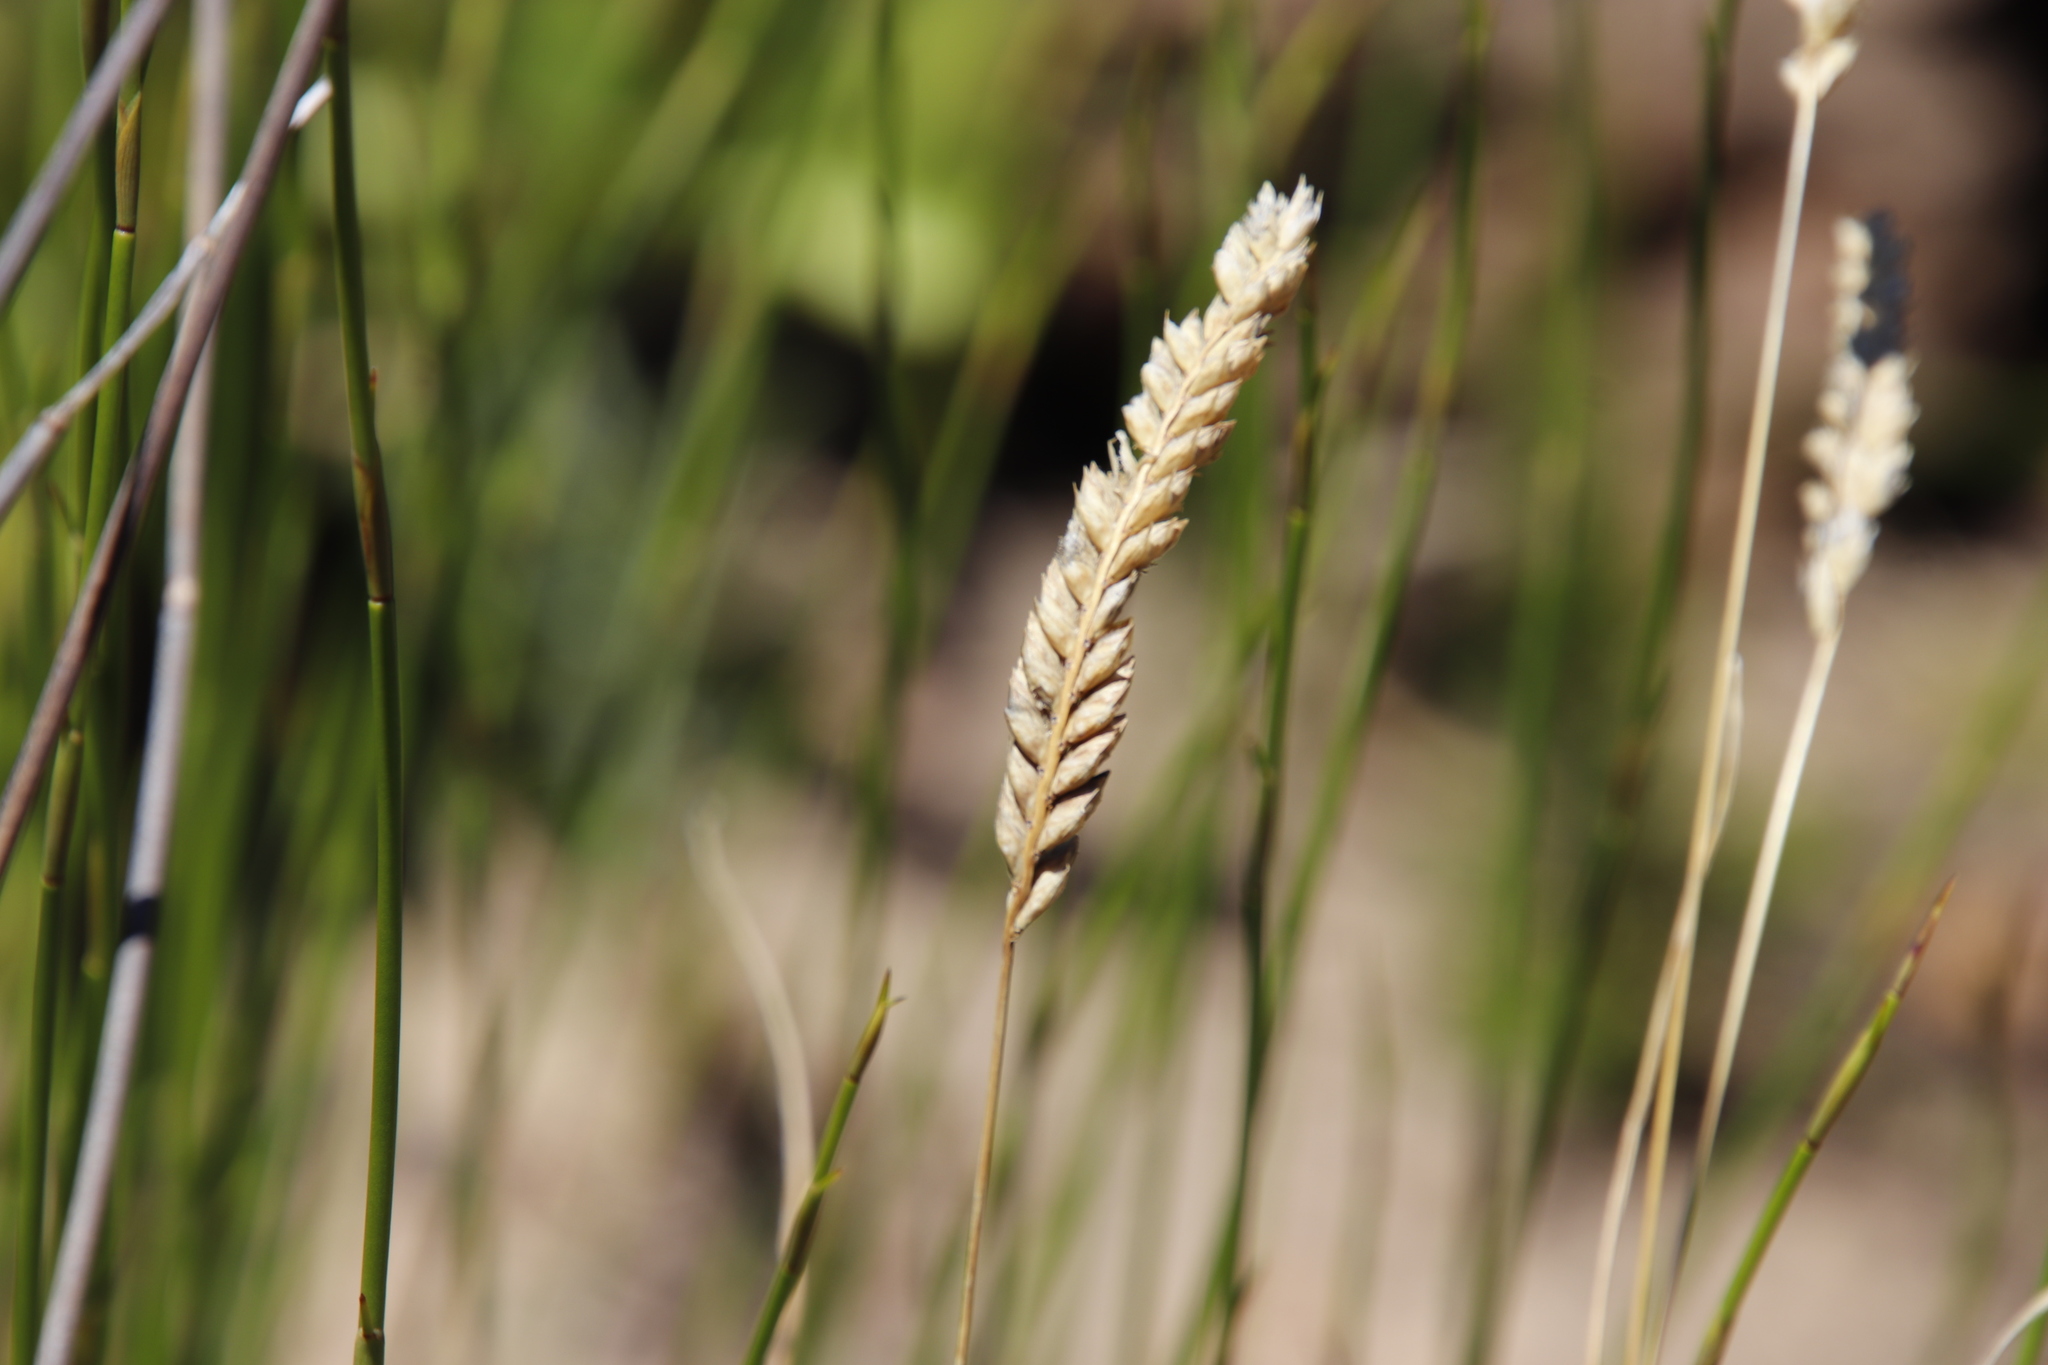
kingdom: Plantae
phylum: Tracheophyta
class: Liliopsida
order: Poales
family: Poaceae
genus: Tribolium
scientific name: Tribolium uniolae
